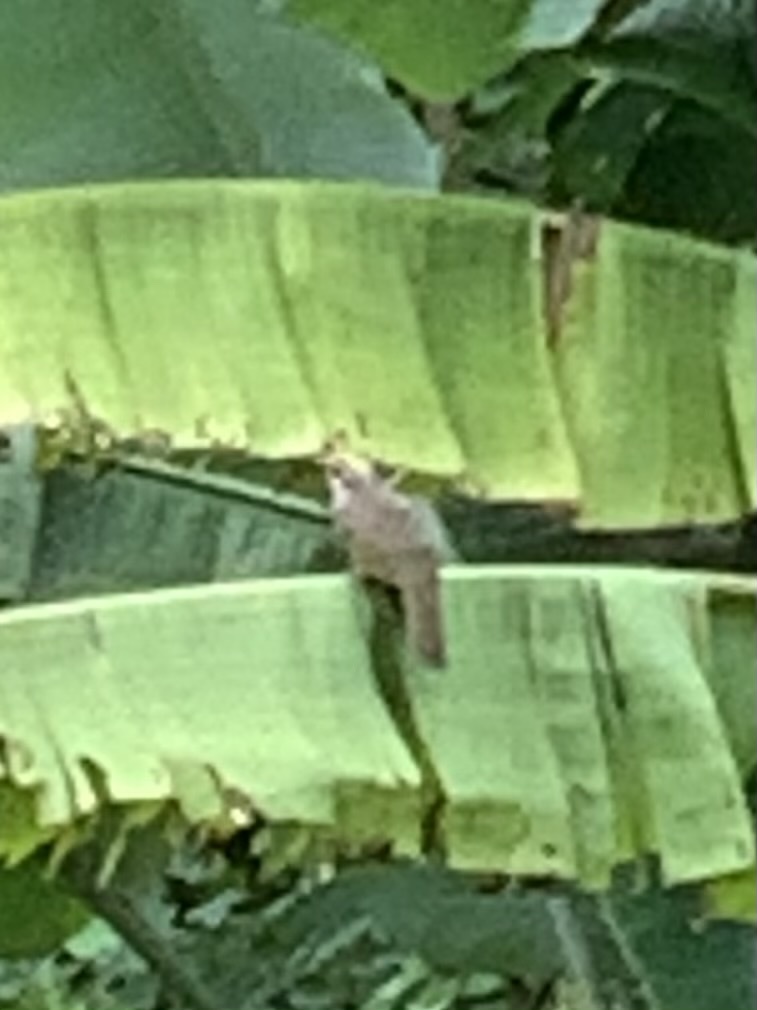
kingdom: Animalia
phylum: Chordata
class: Aves
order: Passeriformes
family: Pycnonotidae
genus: Pycnonotus
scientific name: Pycnonotus zeylanicus
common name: Straw-headed bulbul
